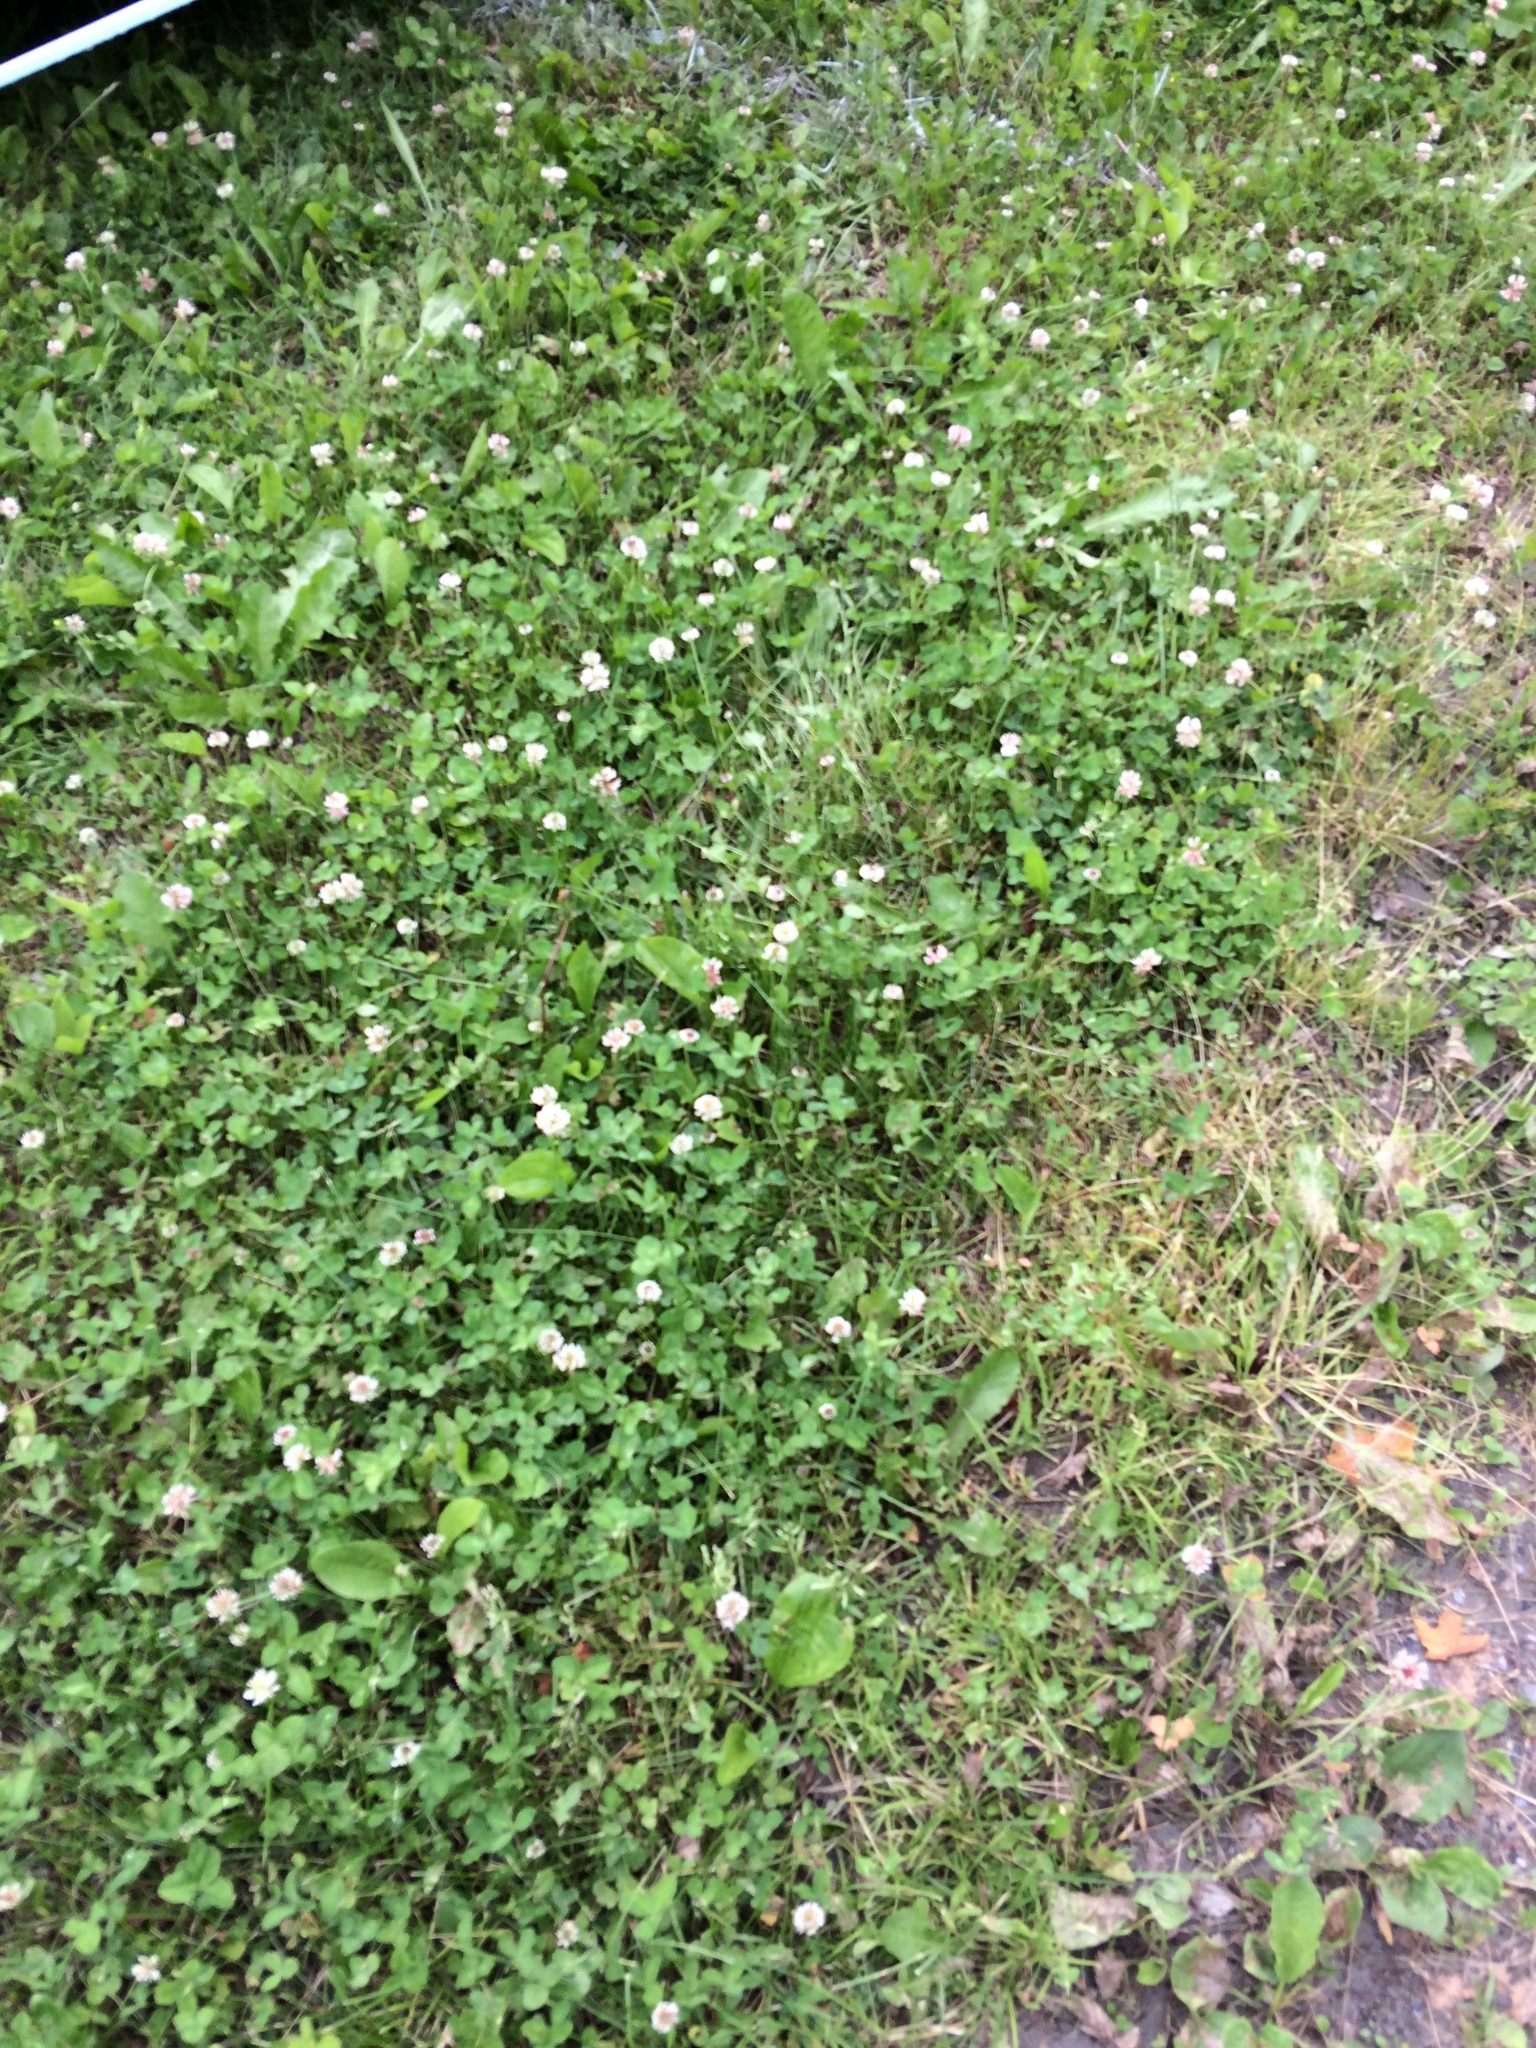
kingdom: Plantae
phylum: Tracheophyta
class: Magnoliopsida
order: Fabales
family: Fabaceae
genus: Trifolium
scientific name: Trifolium repens
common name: White clover
